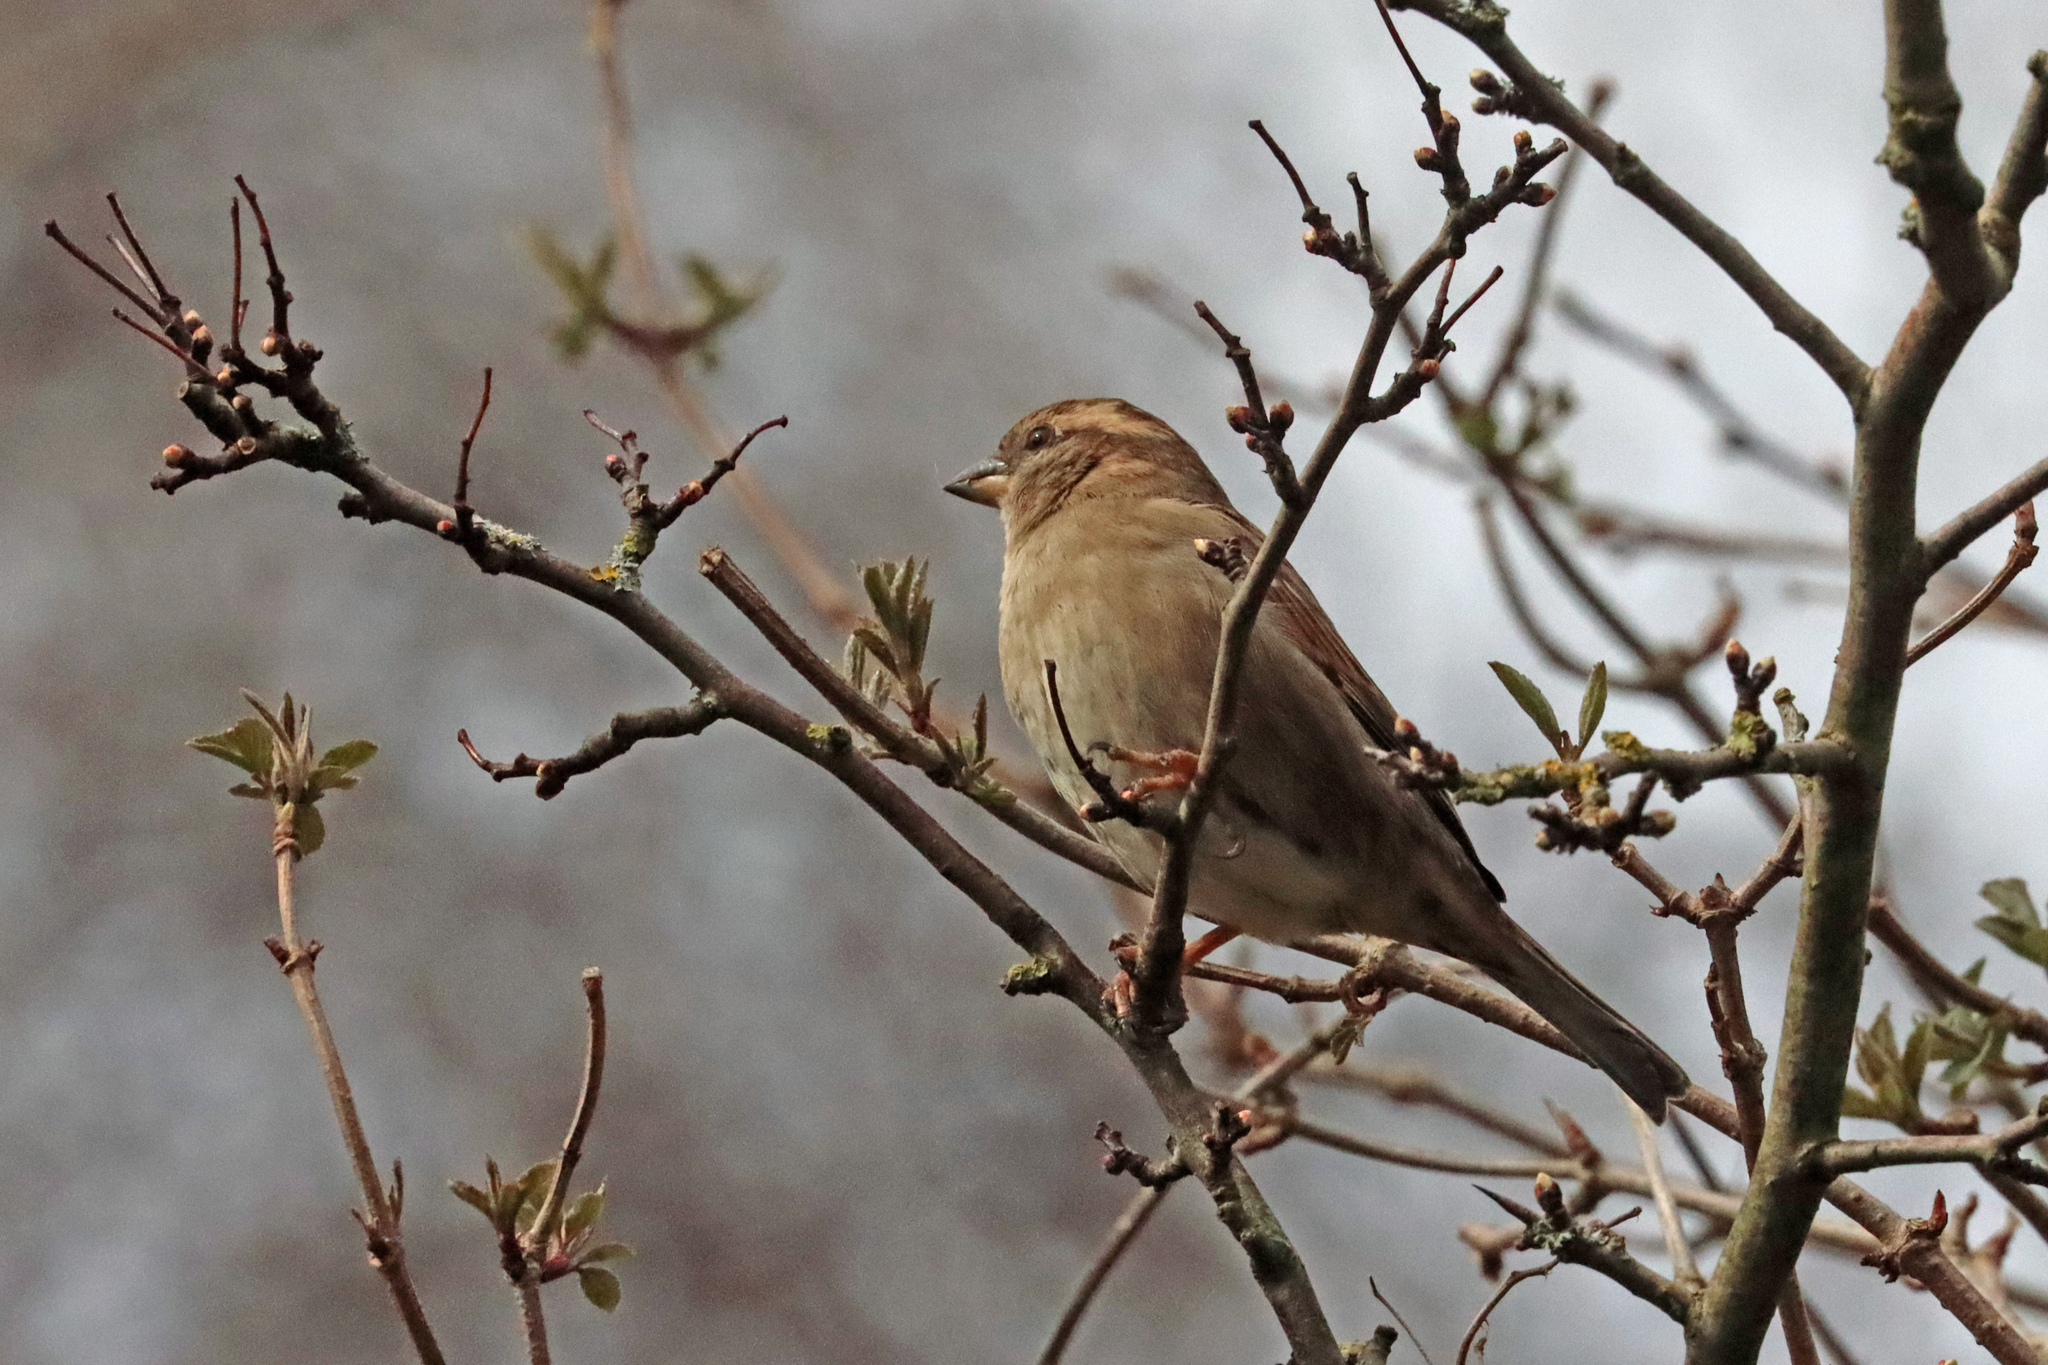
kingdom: Animalia
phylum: Chordata
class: Aves
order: Passeriformes
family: Passeridae
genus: Passer
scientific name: Passer domesticus
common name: House sparrow
